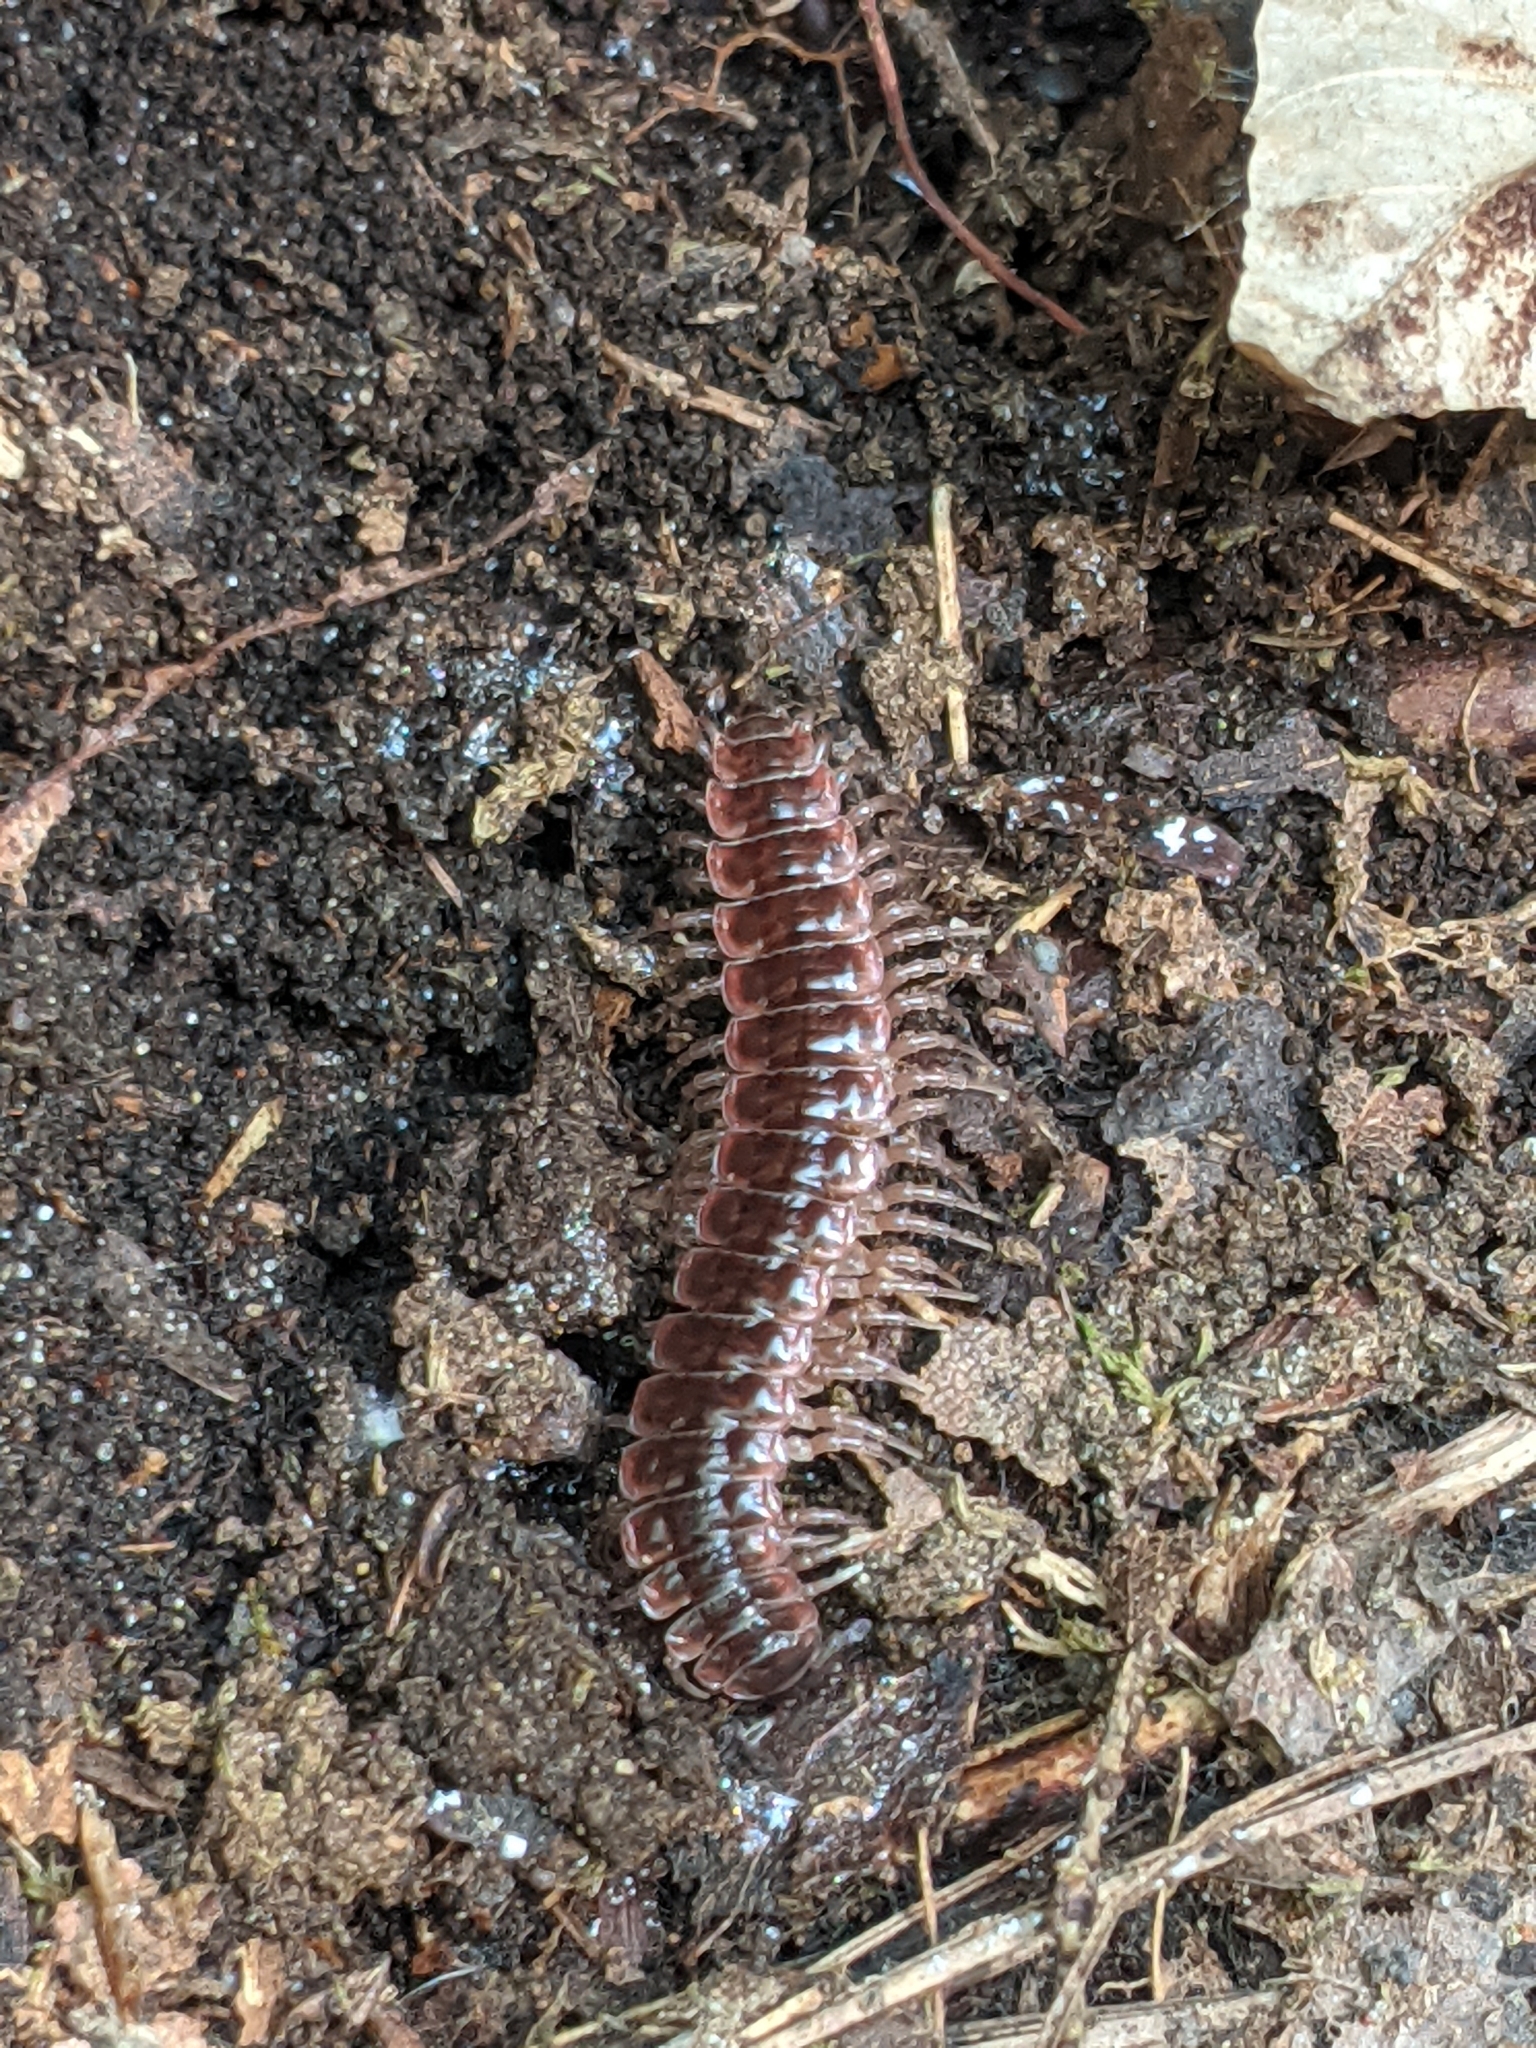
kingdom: Animalia
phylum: Arthropoda
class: Diplopoda
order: Polydesmida
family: Polydesmidae
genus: Pseudopolydesmus
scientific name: Pseudopolydesmus serratus
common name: Common pink flat-back millipede
